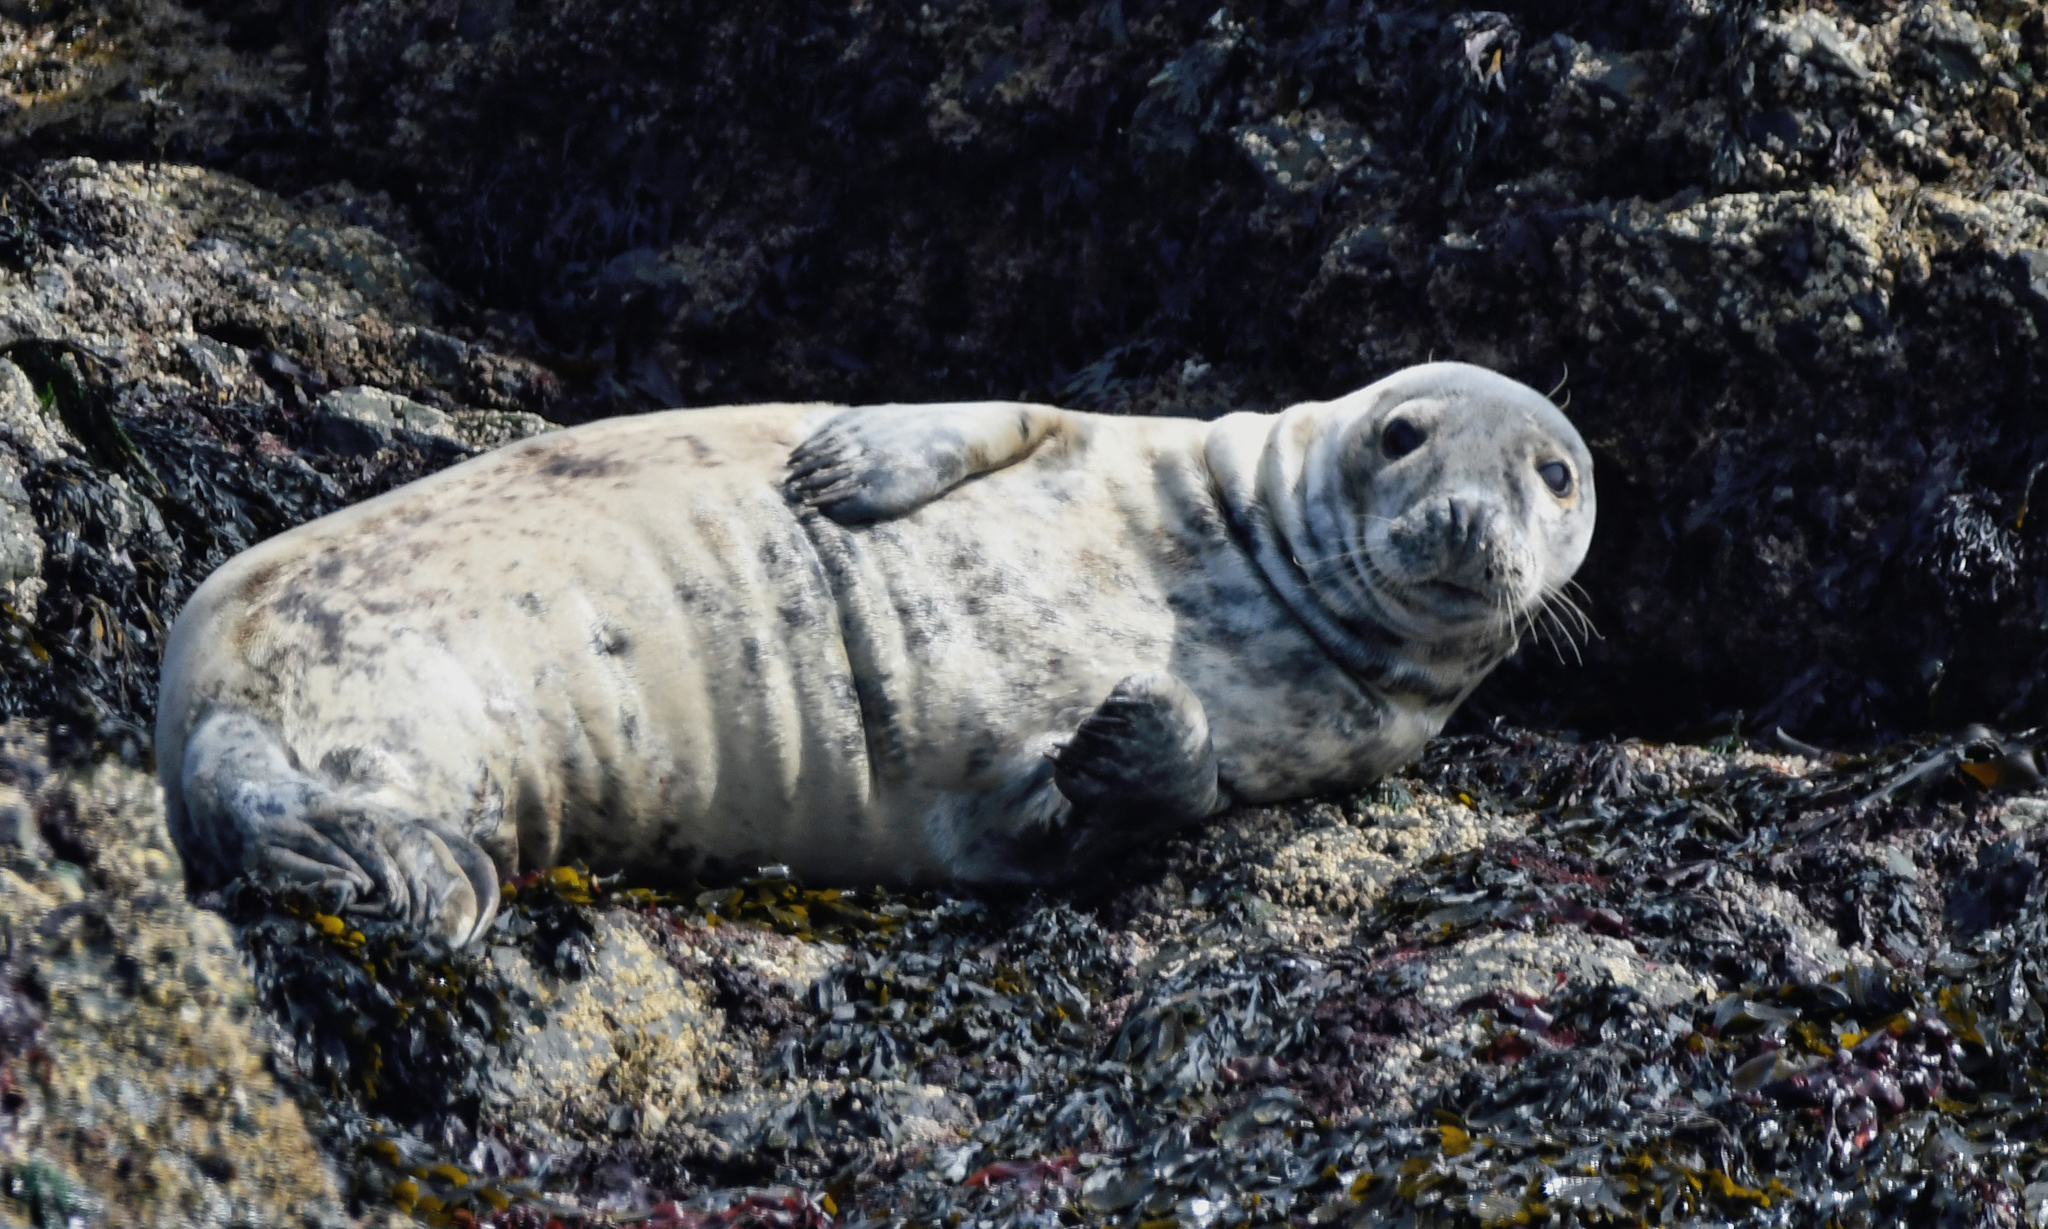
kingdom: Animalia
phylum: Chordata
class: Mammalia
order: Carnivora
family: Phocidae
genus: Halichoerus
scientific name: Halichoerus grypus
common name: Grey seal
